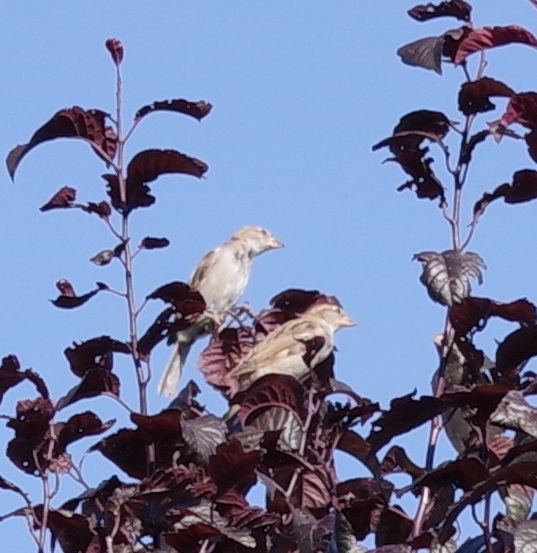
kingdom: Animalia
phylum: Chordata
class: Aves
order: Passeriformes
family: Passeridae
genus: Passer
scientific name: Passer domesticus
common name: House sparrow
